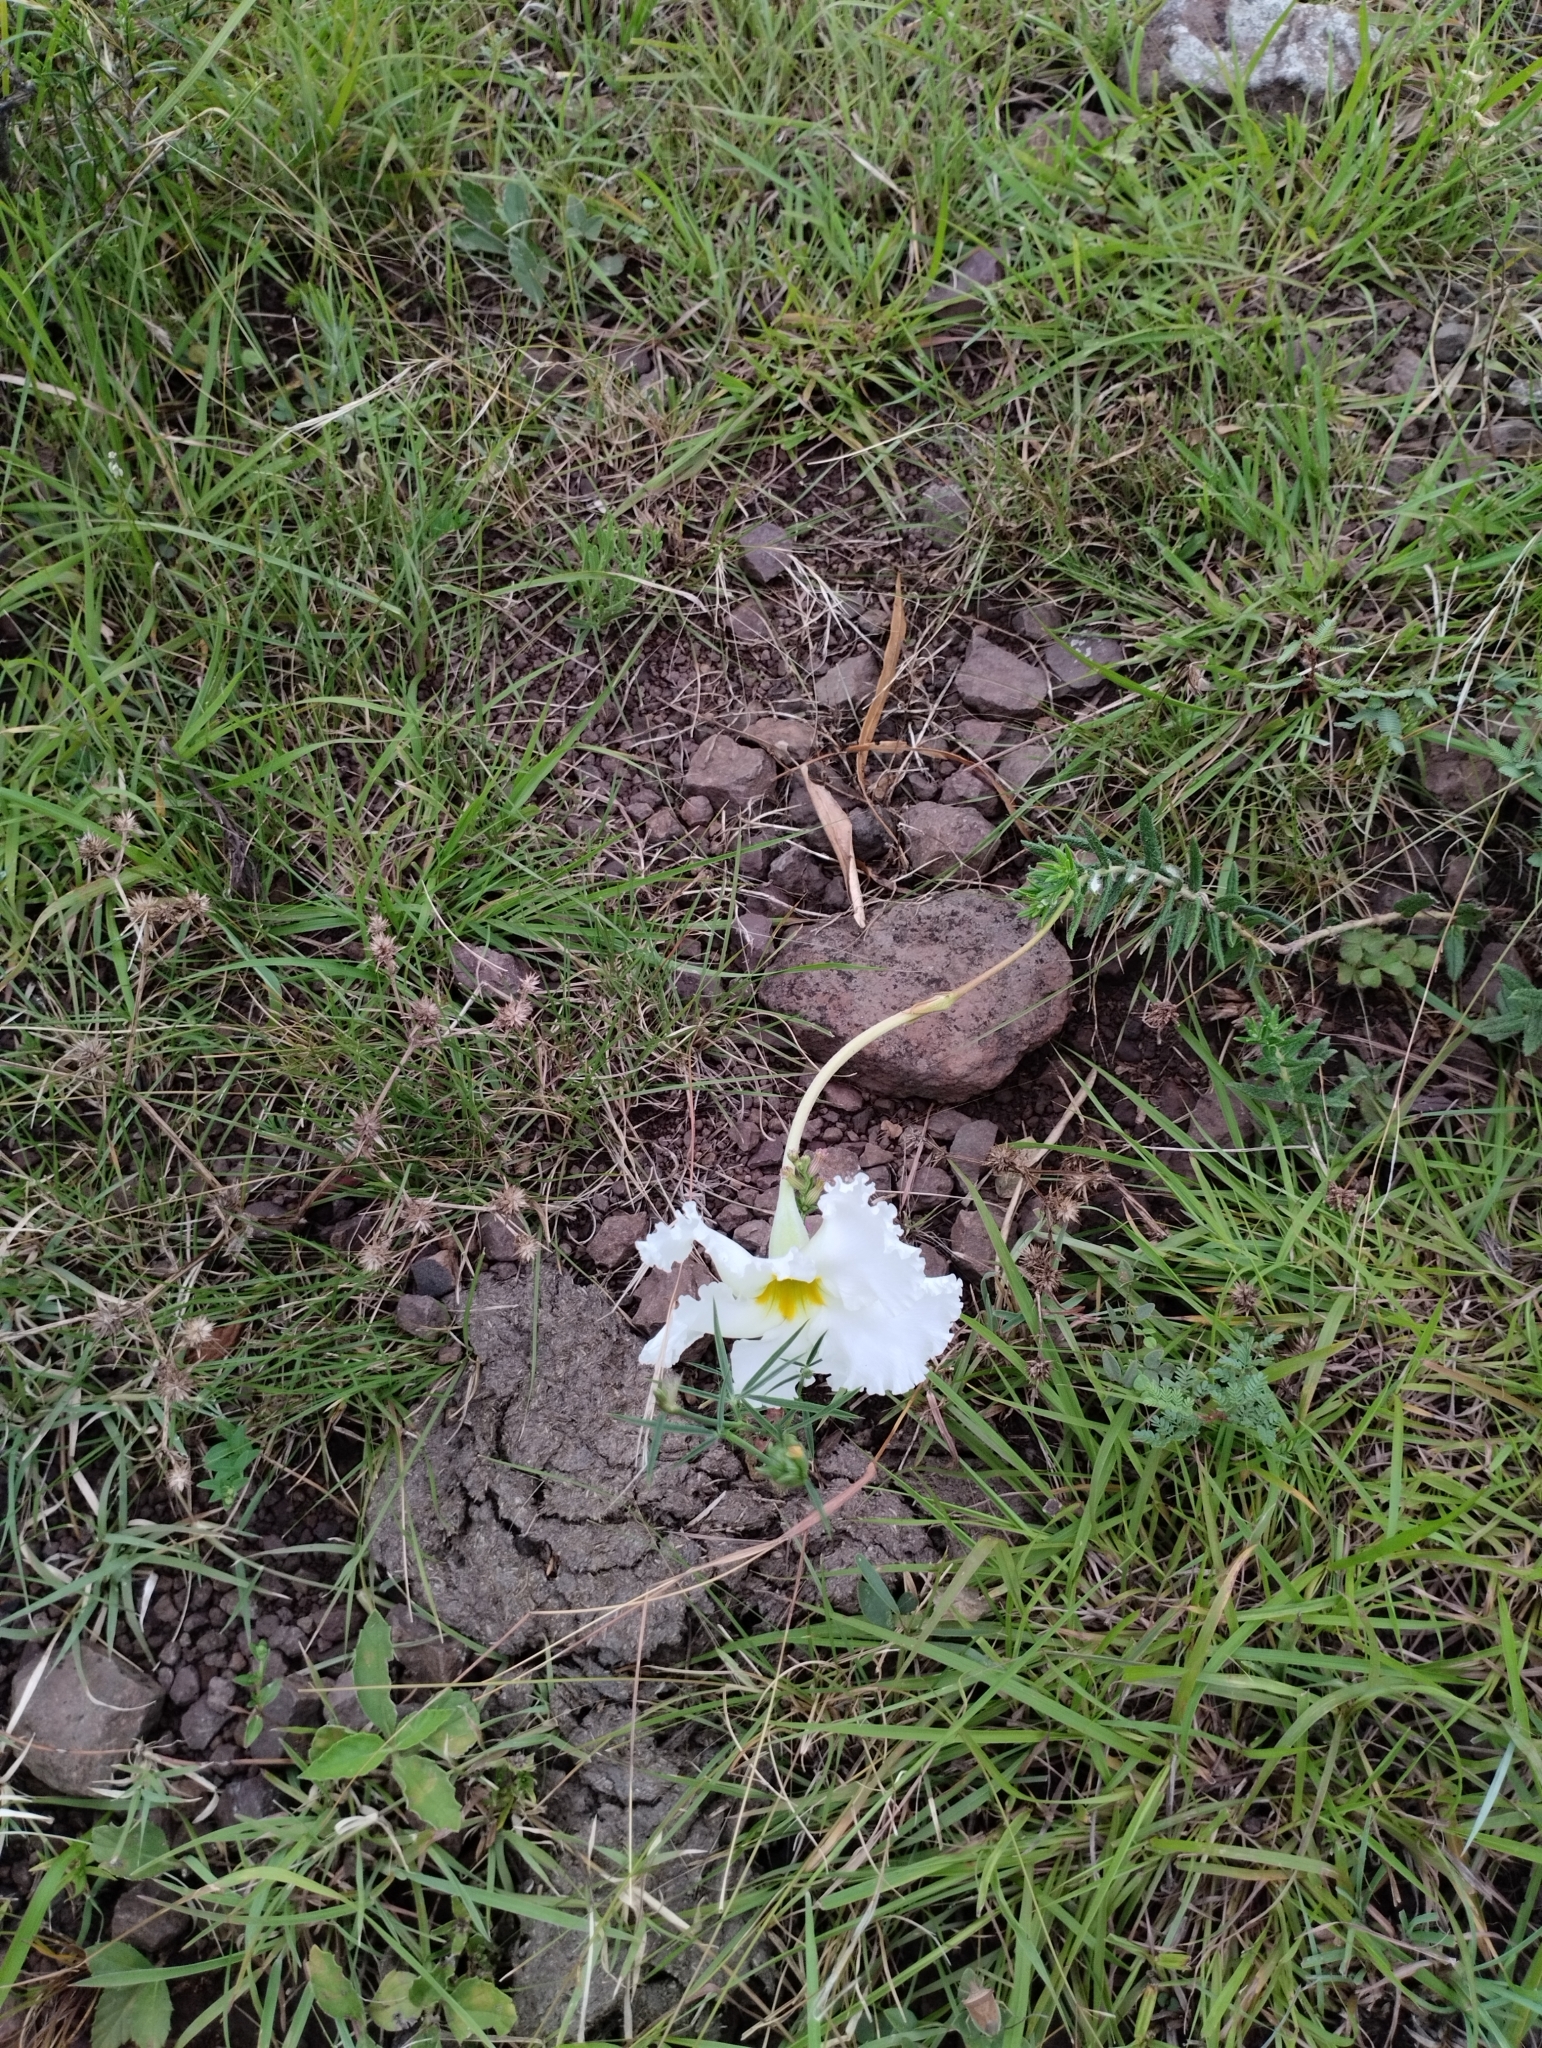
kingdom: Plantae
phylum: Tracheophyta
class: Magnoliopsida
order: Gentianales
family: Apocynaceae
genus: Mandevilla
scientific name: Mandevilla petraea
